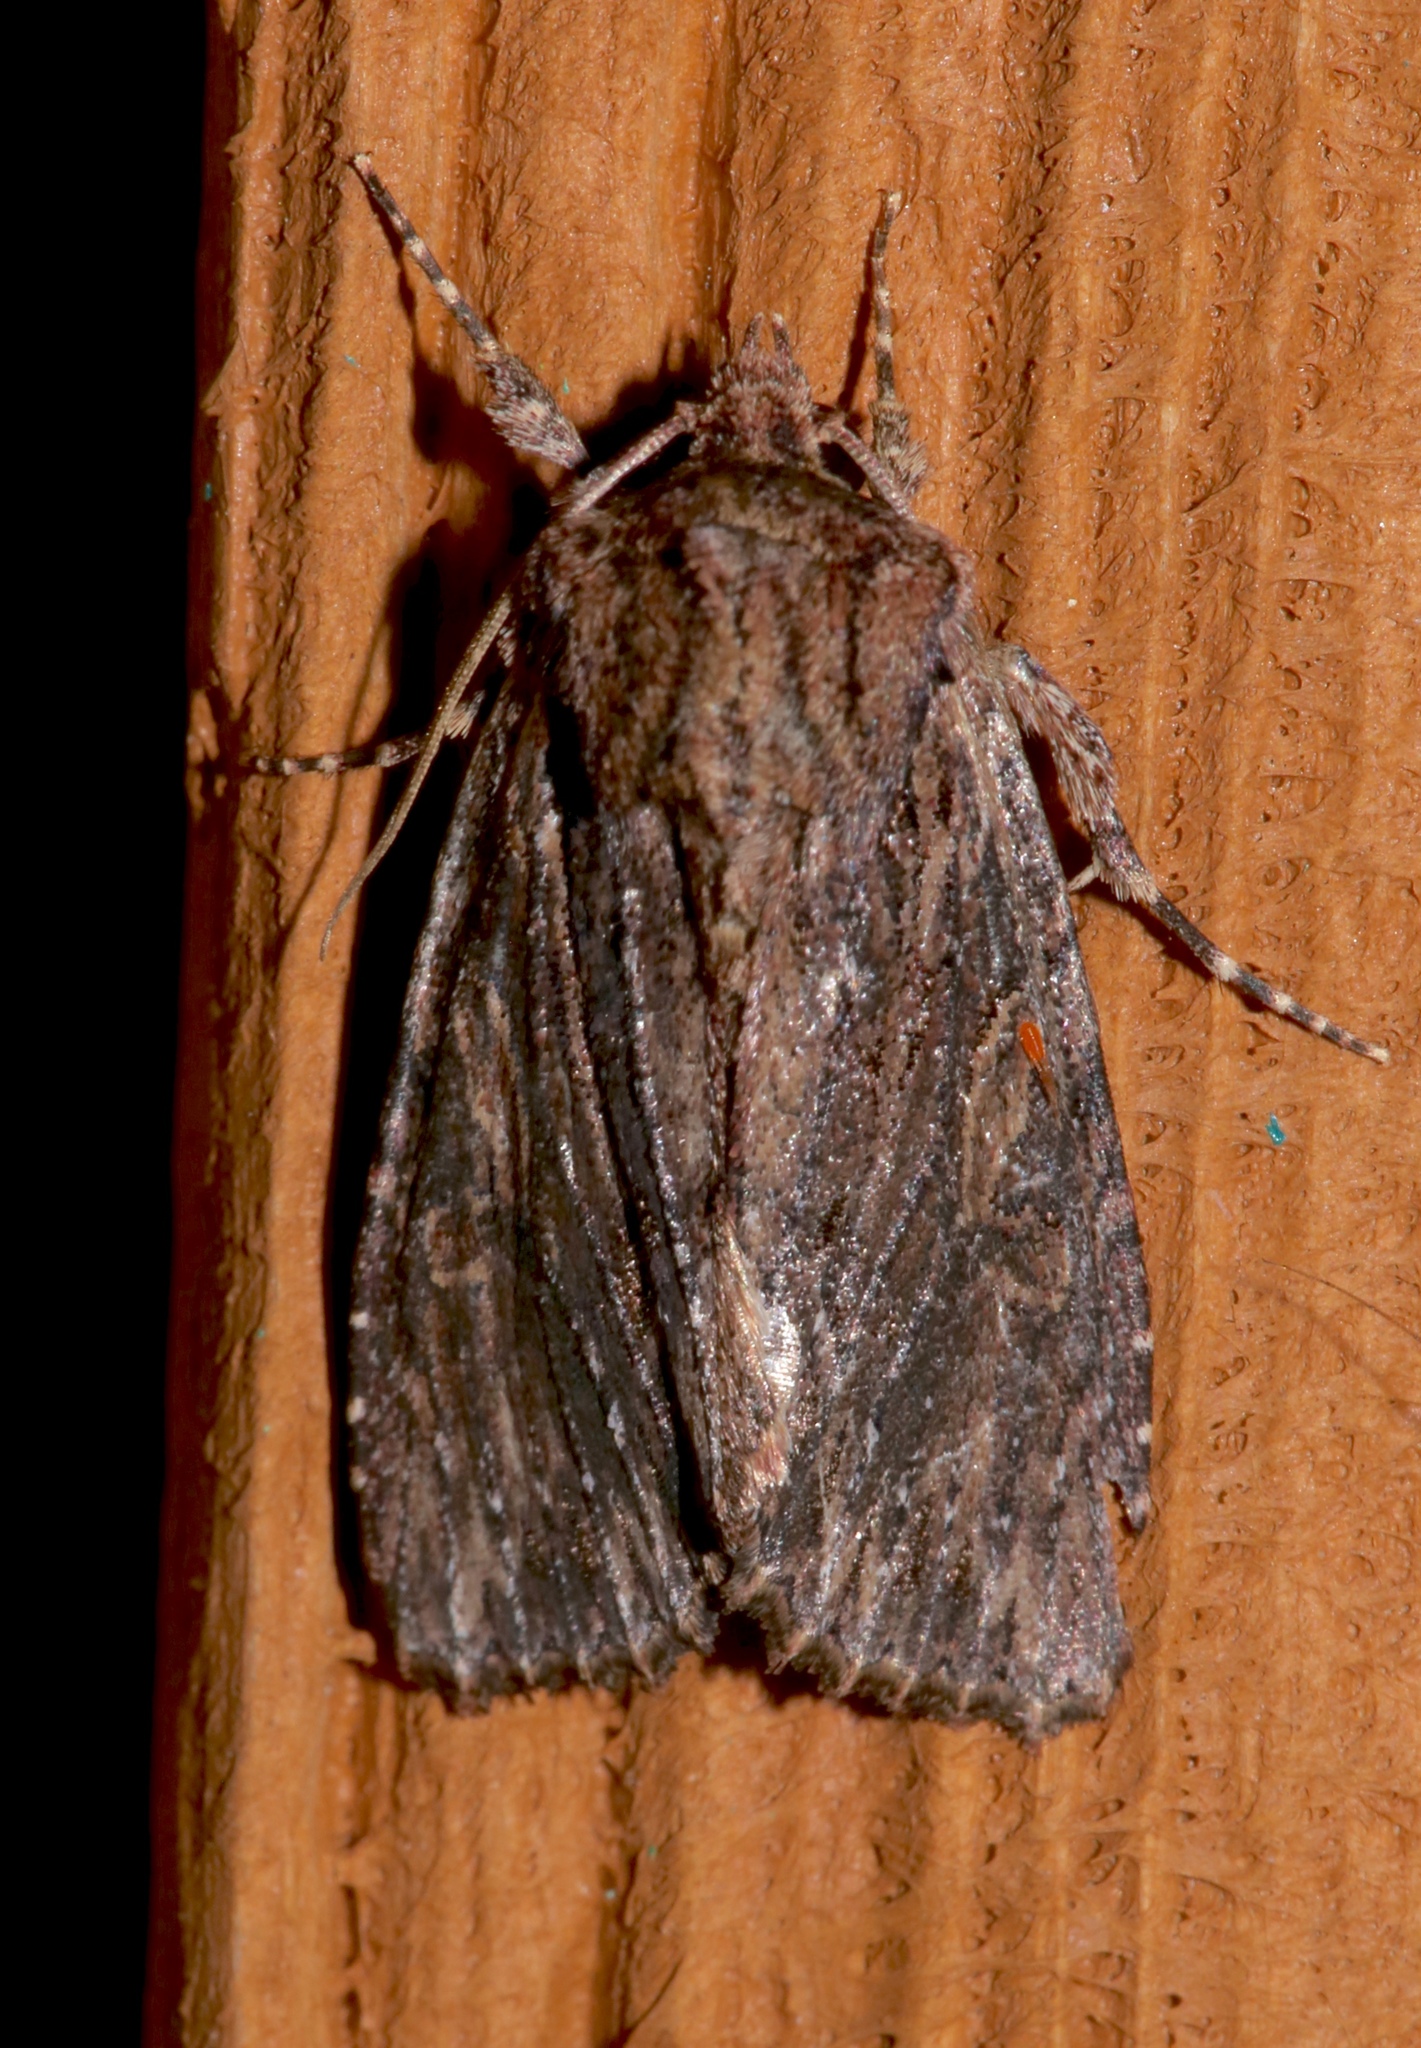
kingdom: Animalia
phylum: Arthropoda
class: Insecta
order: Lepidoptera
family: Noctuidae
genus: Achatia
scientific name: Achatia confusa
